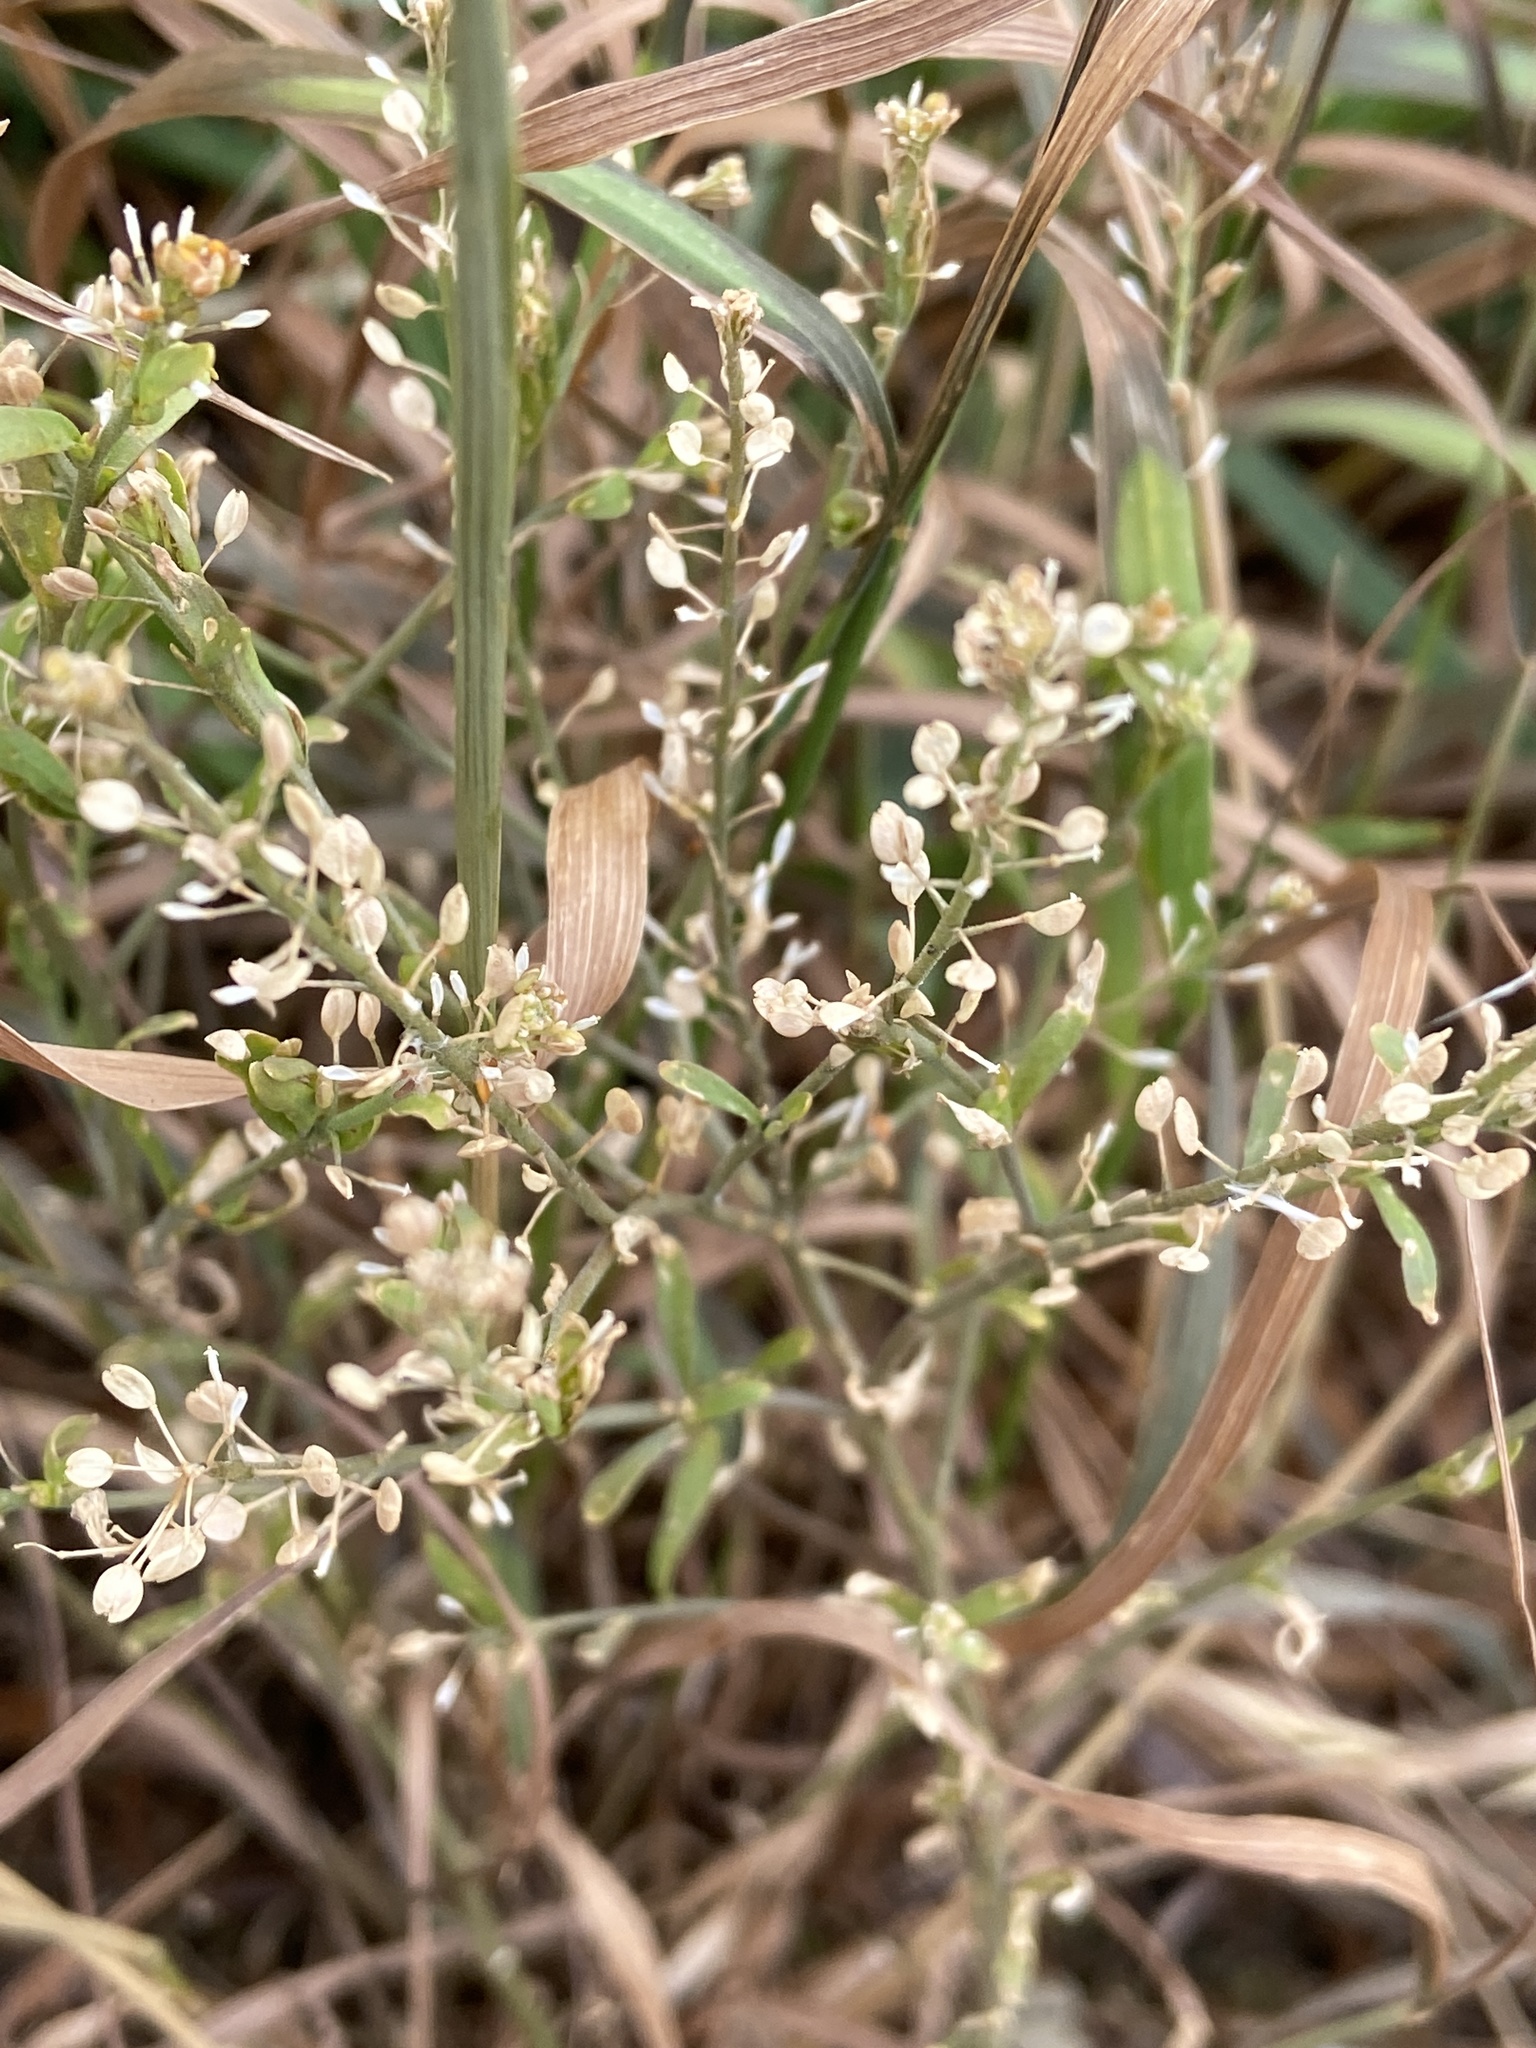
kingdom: Plantae
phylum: Tracheophyta
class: Magnoliopsida
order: Brassicales
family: Brassicaceae
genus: Lepidium
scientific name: Lepidium ruderale
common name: Narrow-leaved pepperwort
